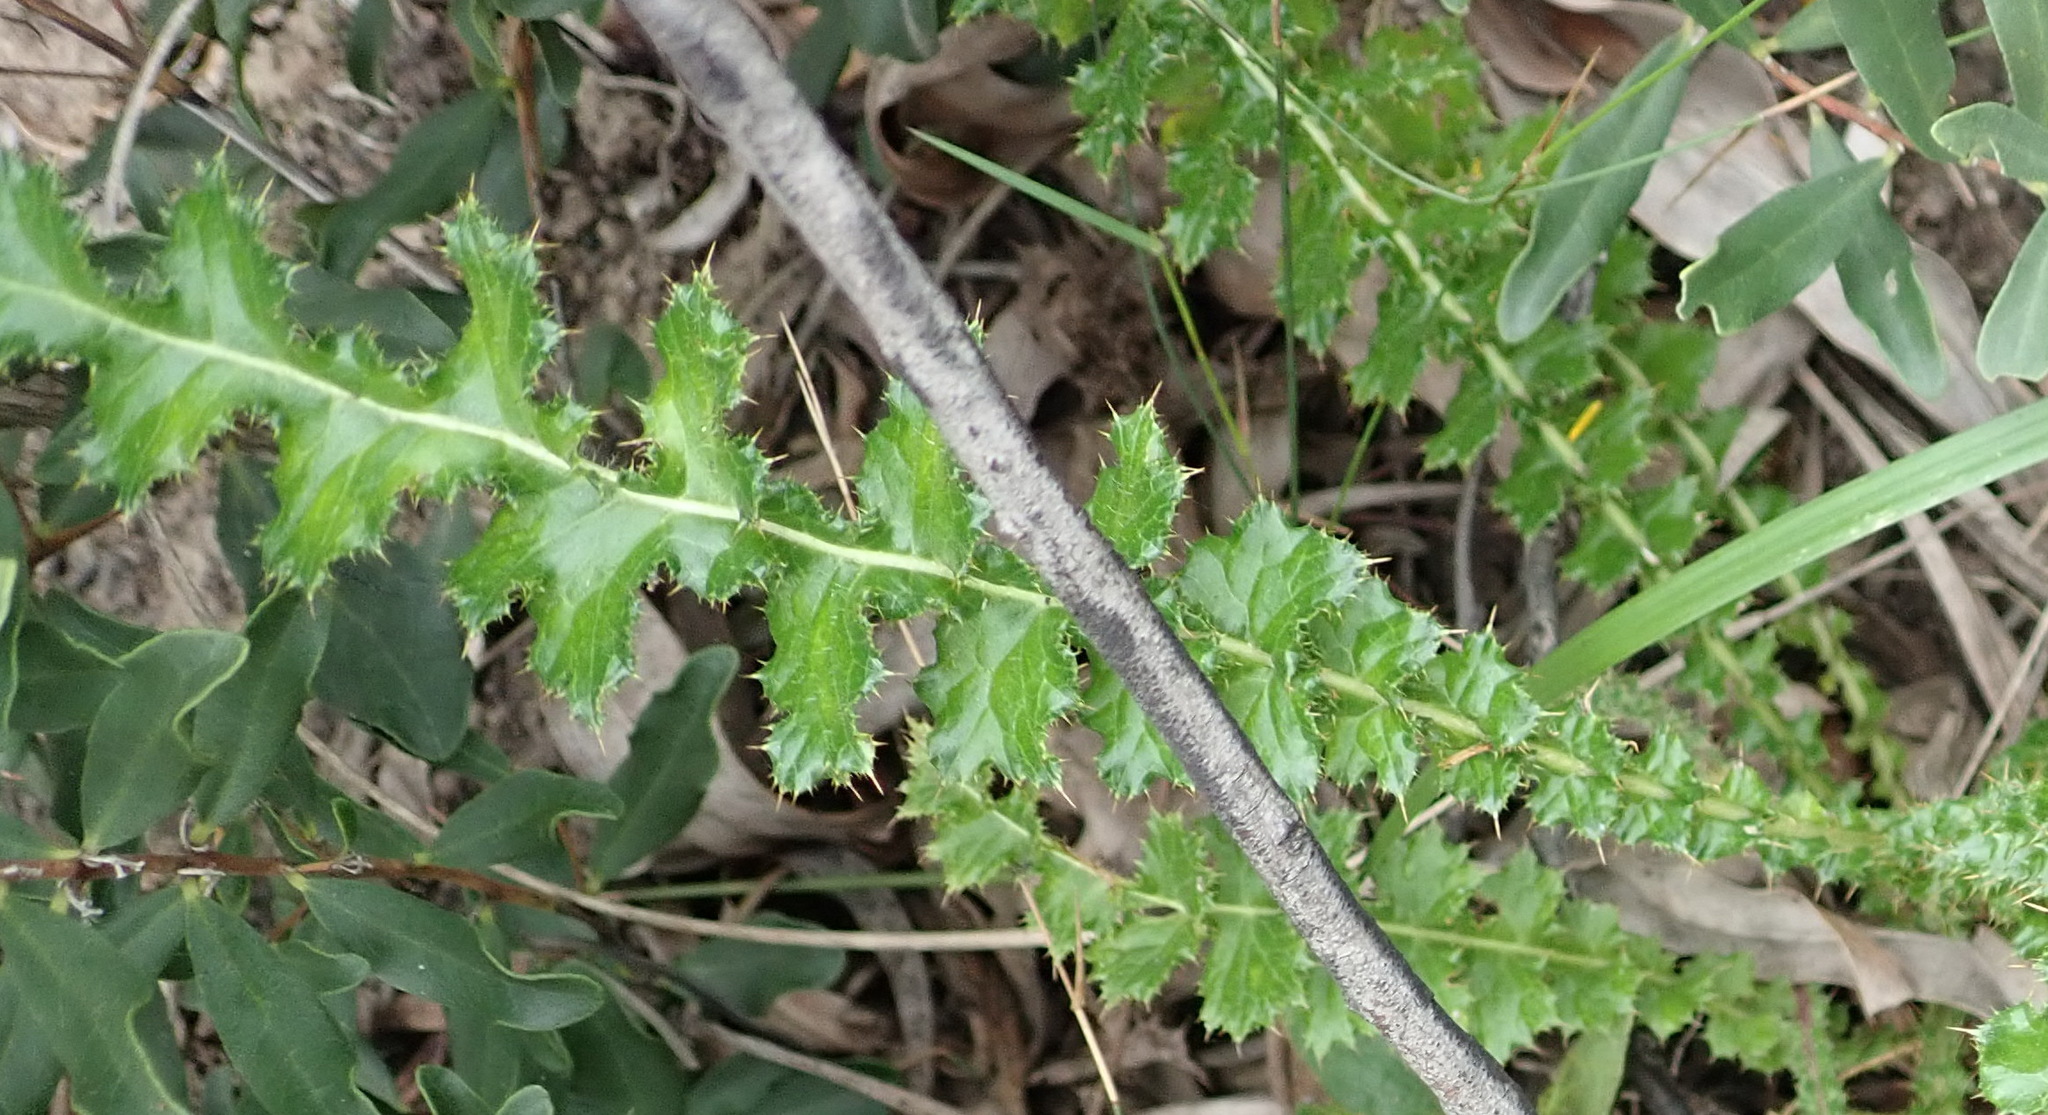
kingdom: Plantae
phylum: Tracheophyta
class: Magnoliopsida
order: Asterales
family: Asteraceae
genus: Berkheya
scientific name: Berkheya carduoides
